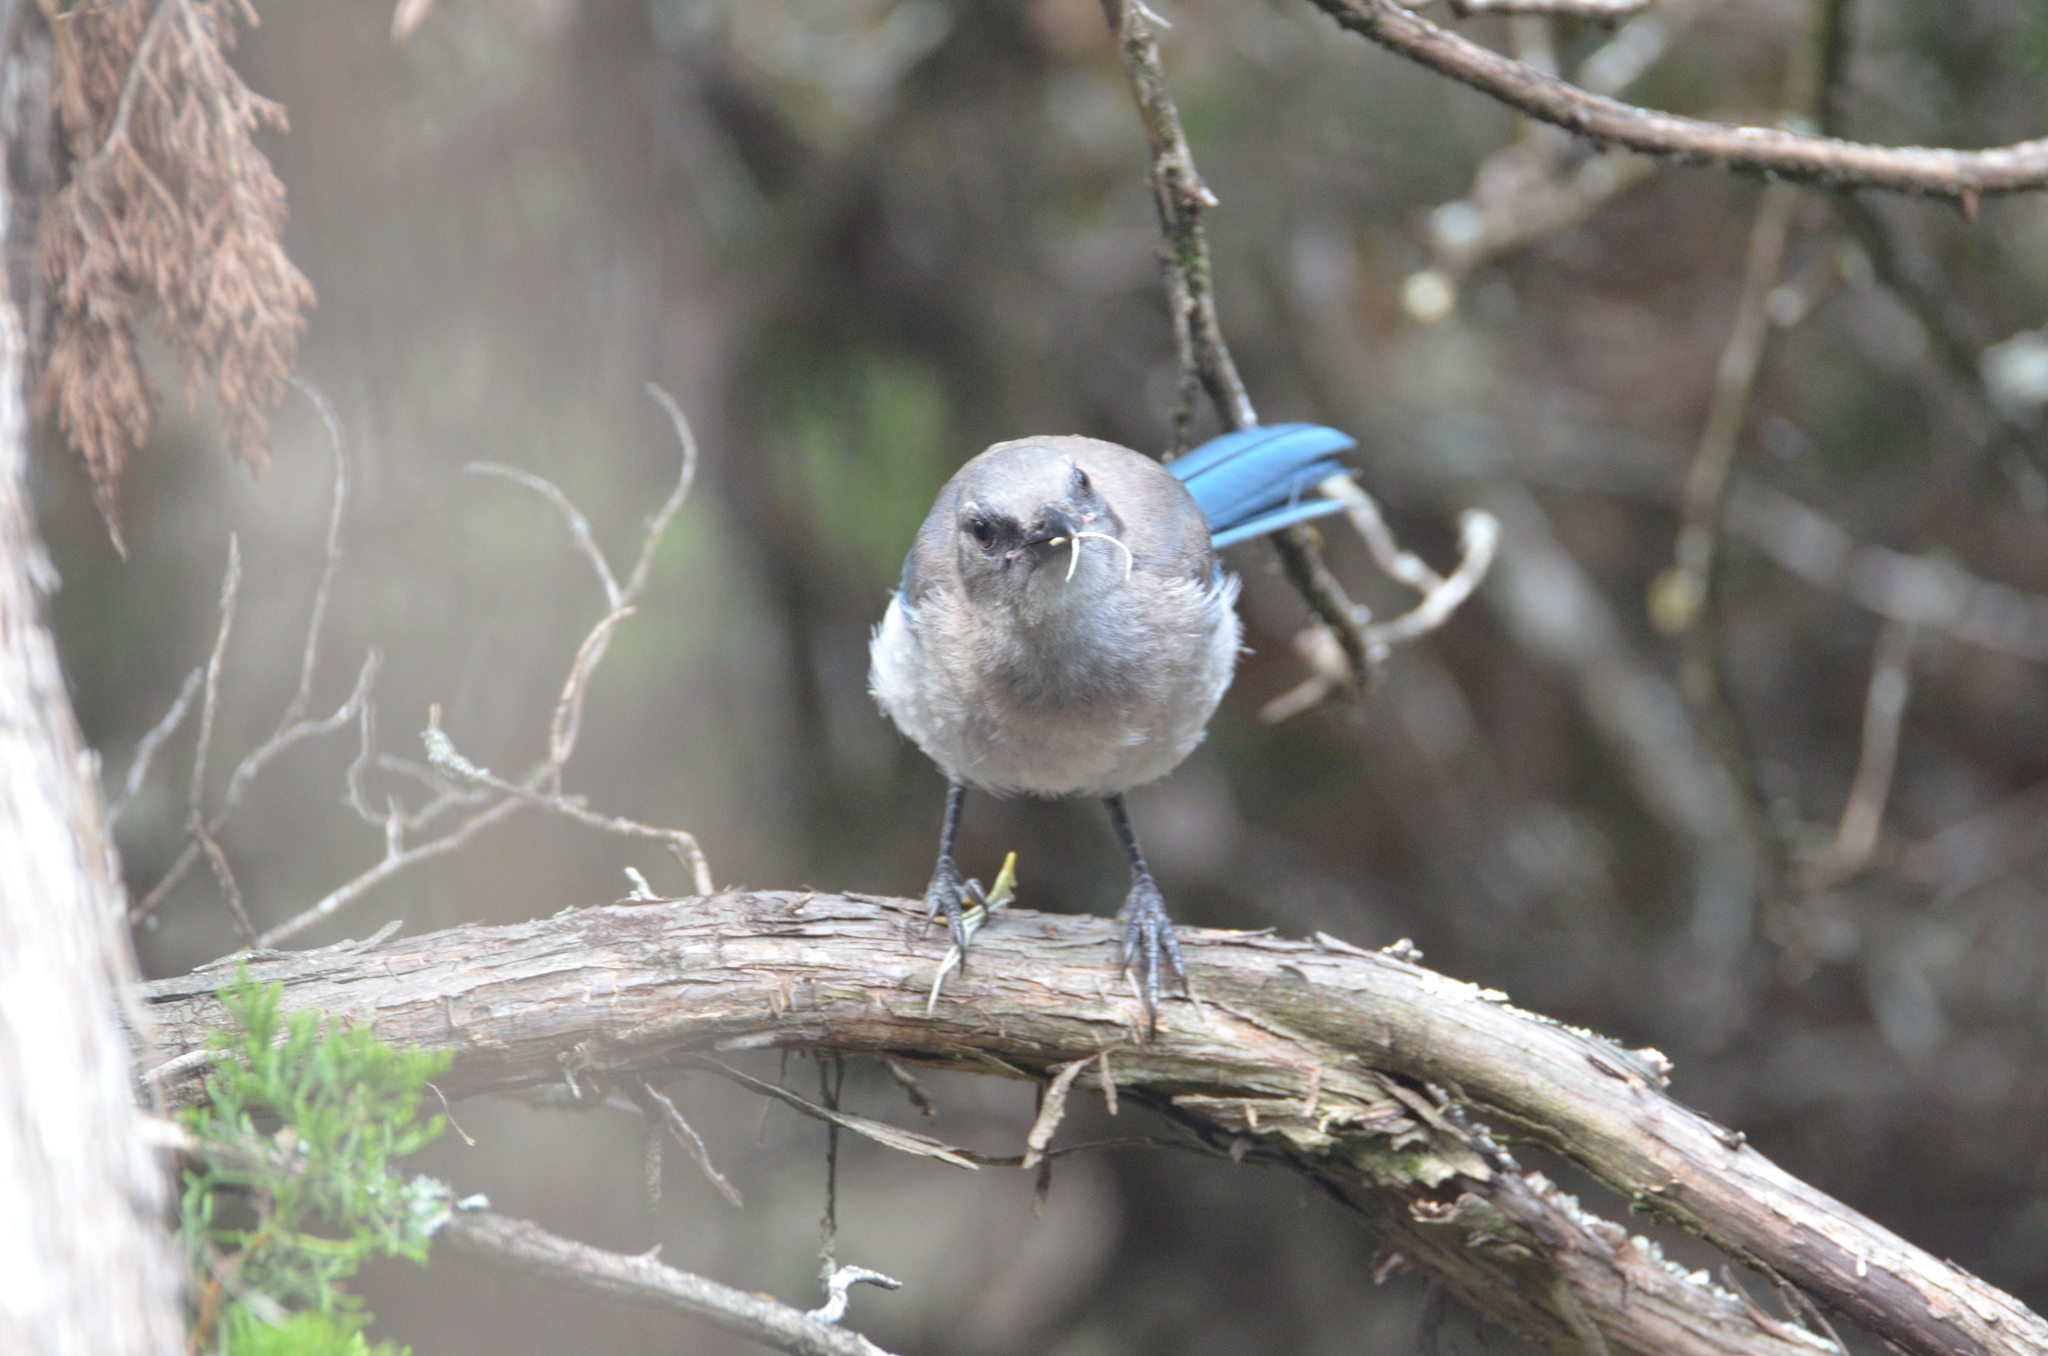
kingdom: Animalia
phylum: Chordata
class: Aves
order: Passeriformes
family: Corvidae
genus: Aphelocoma
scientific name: Aphelocoma woodhouseii
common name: Woodhouse's scrub-jay
